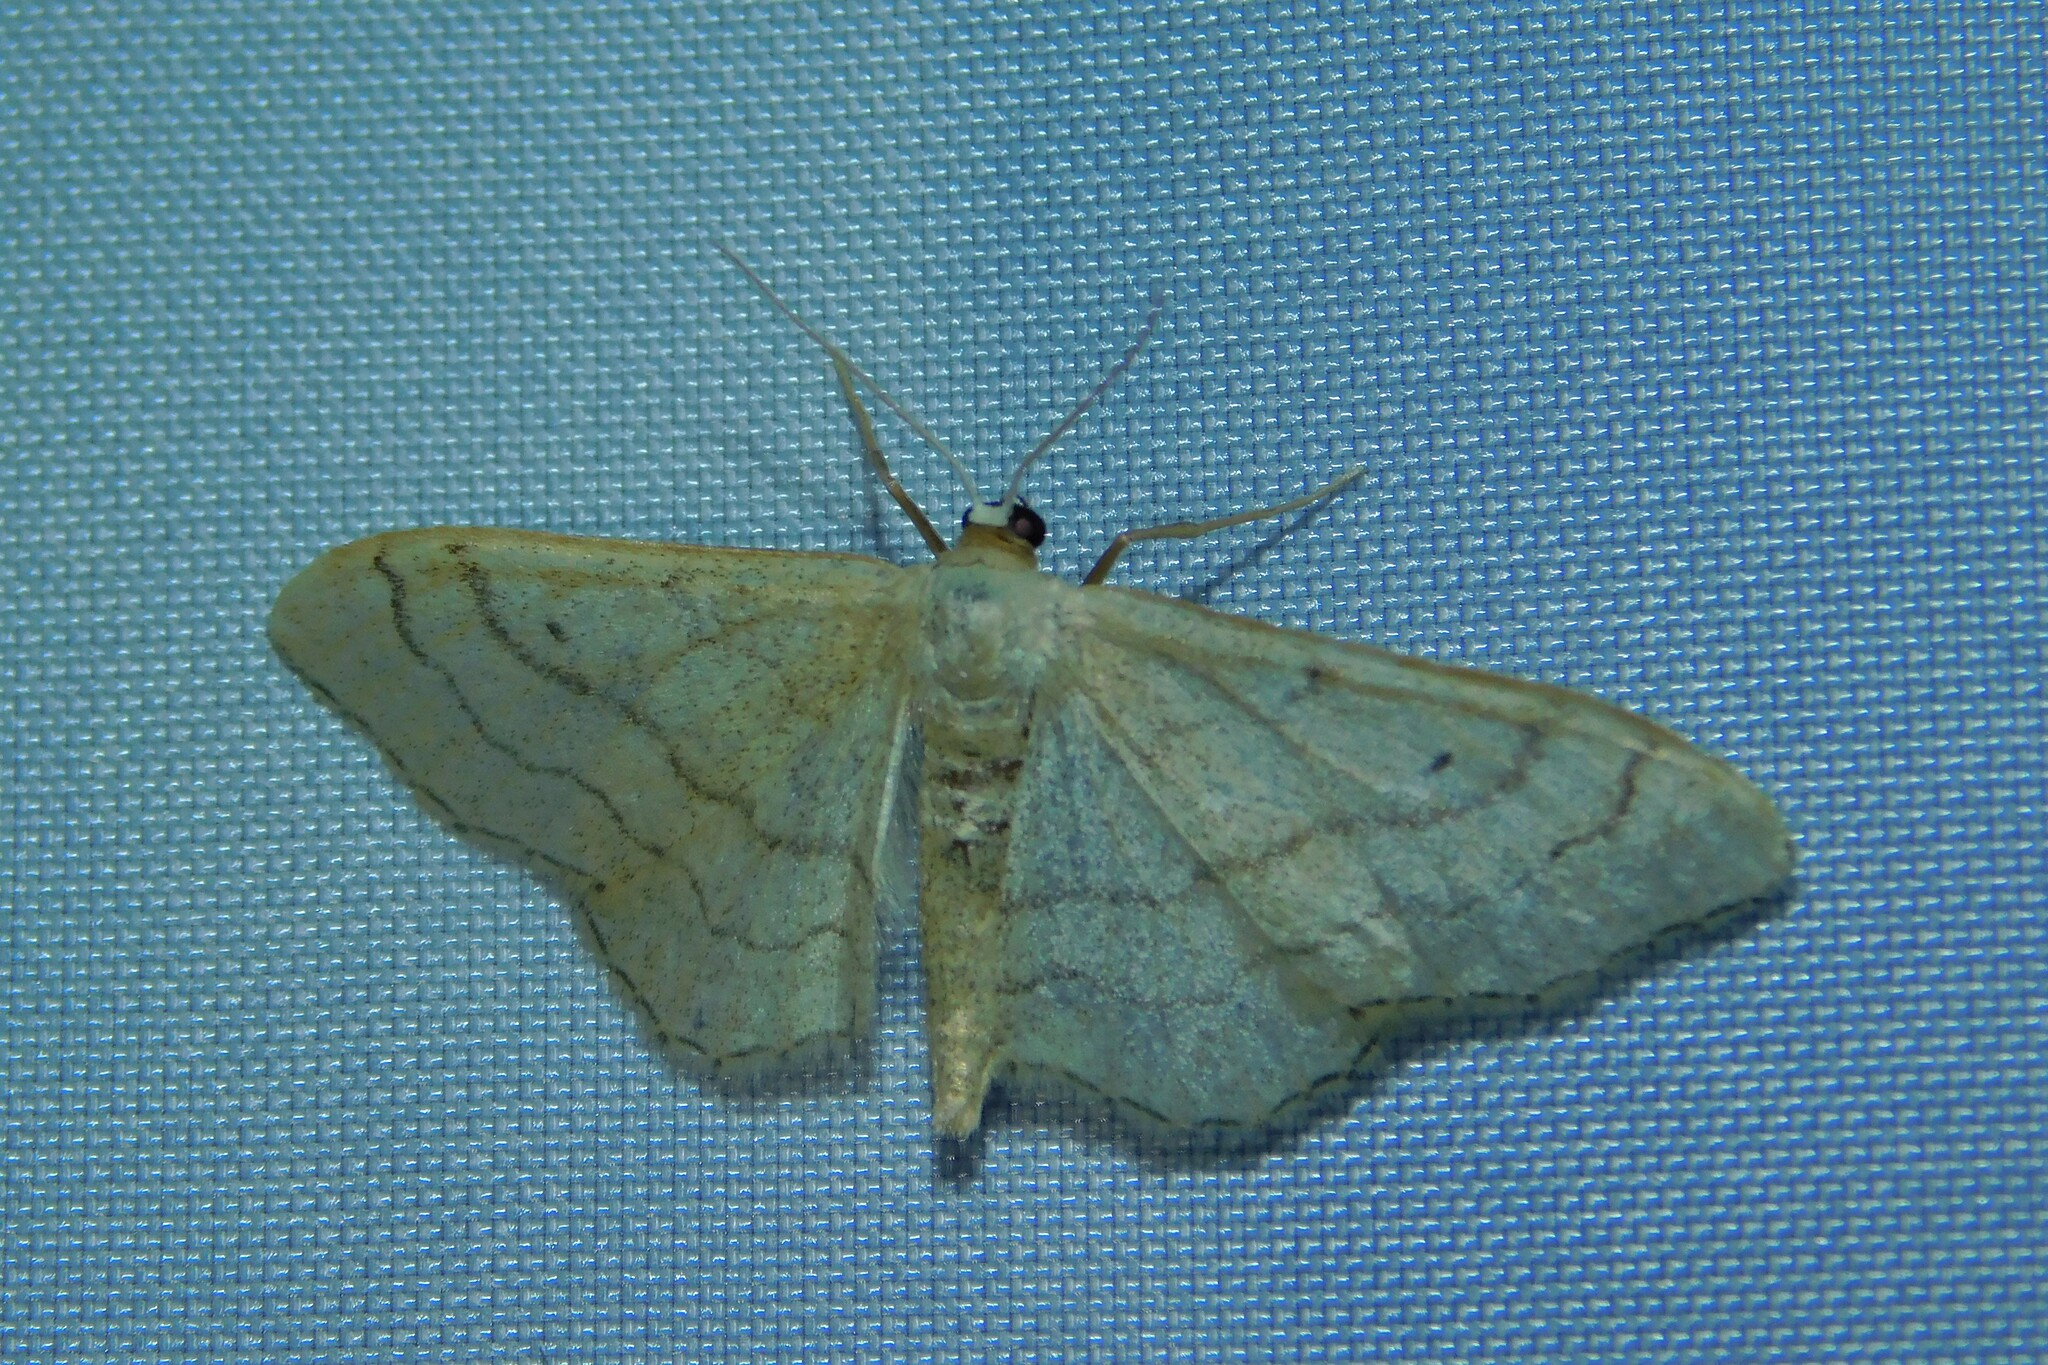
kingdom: Animalia
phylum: Arthropoda
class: Insecta
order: Lepidoptera
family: Geometridae
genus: Idaea
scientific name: Idaea aversata
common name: Riband wave
